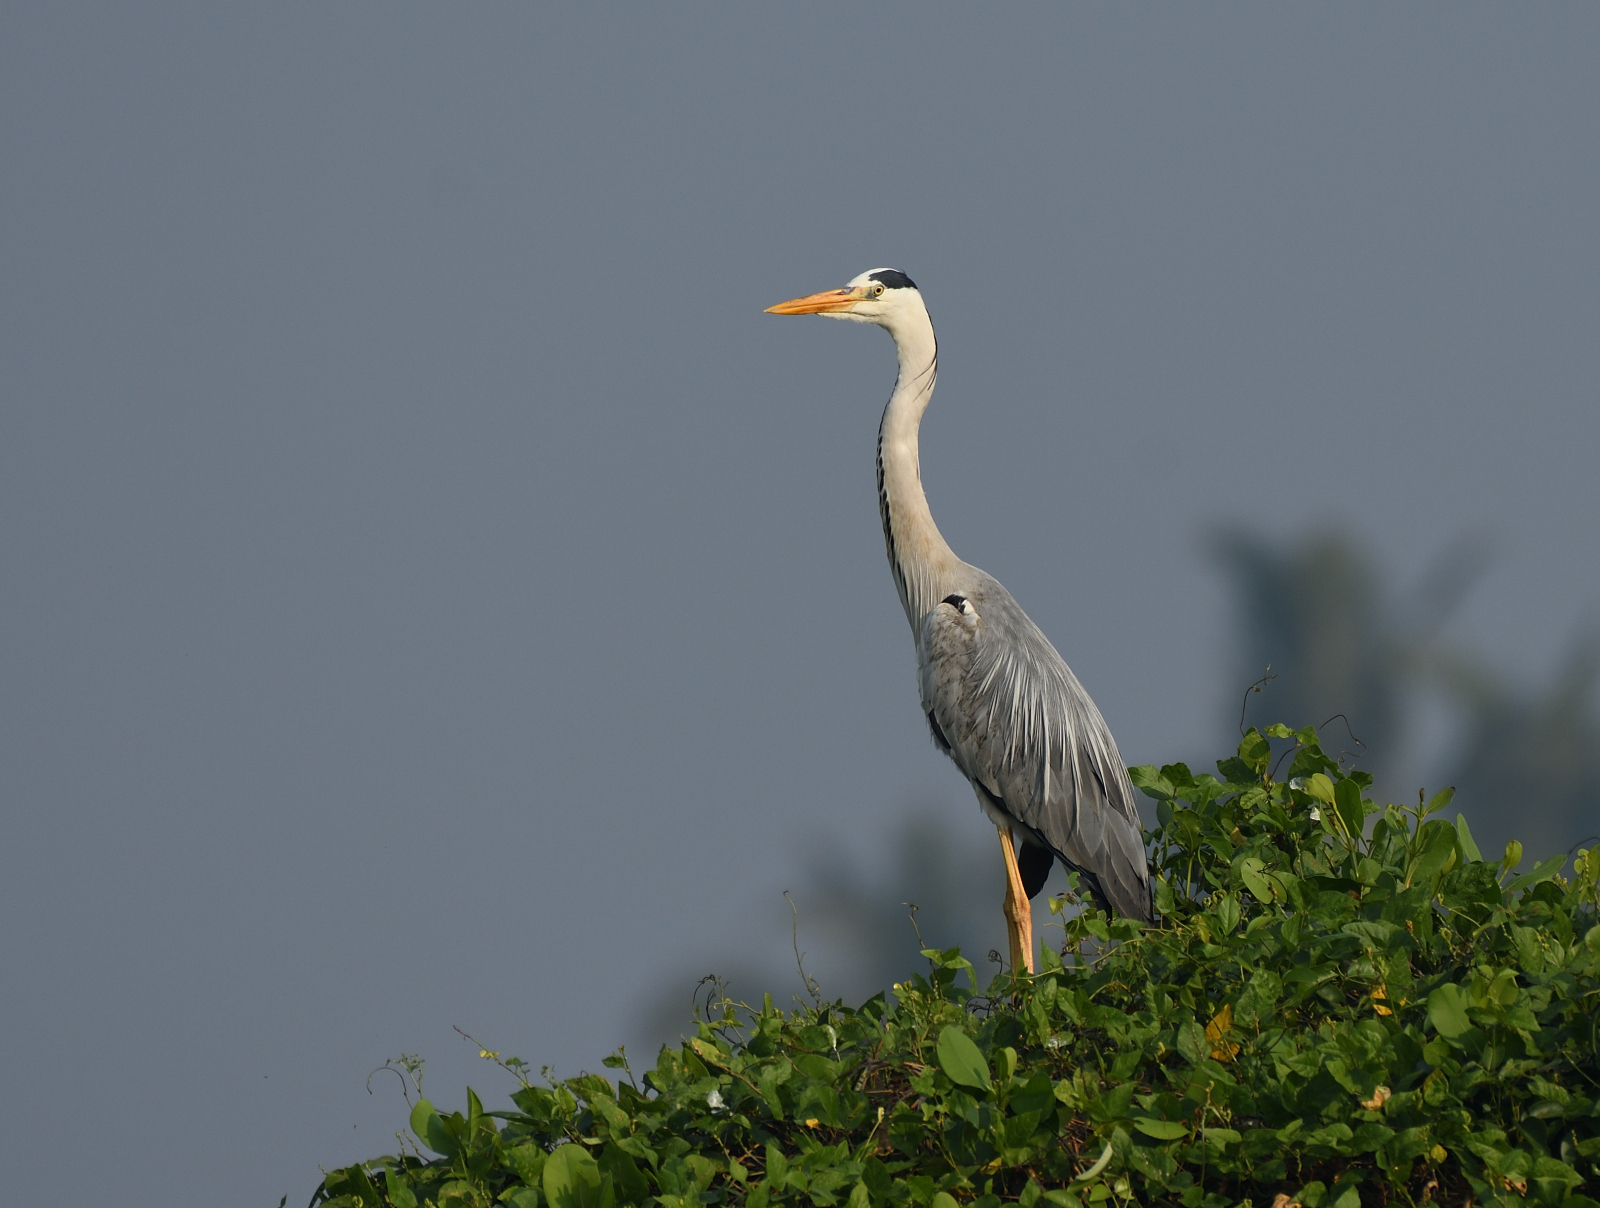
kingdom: Animalia
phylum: Chordata
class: Aves
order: Pelecaniformes
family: Ardeidae
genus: Ardea
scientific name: Ardea cinerea
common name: Grey heron
